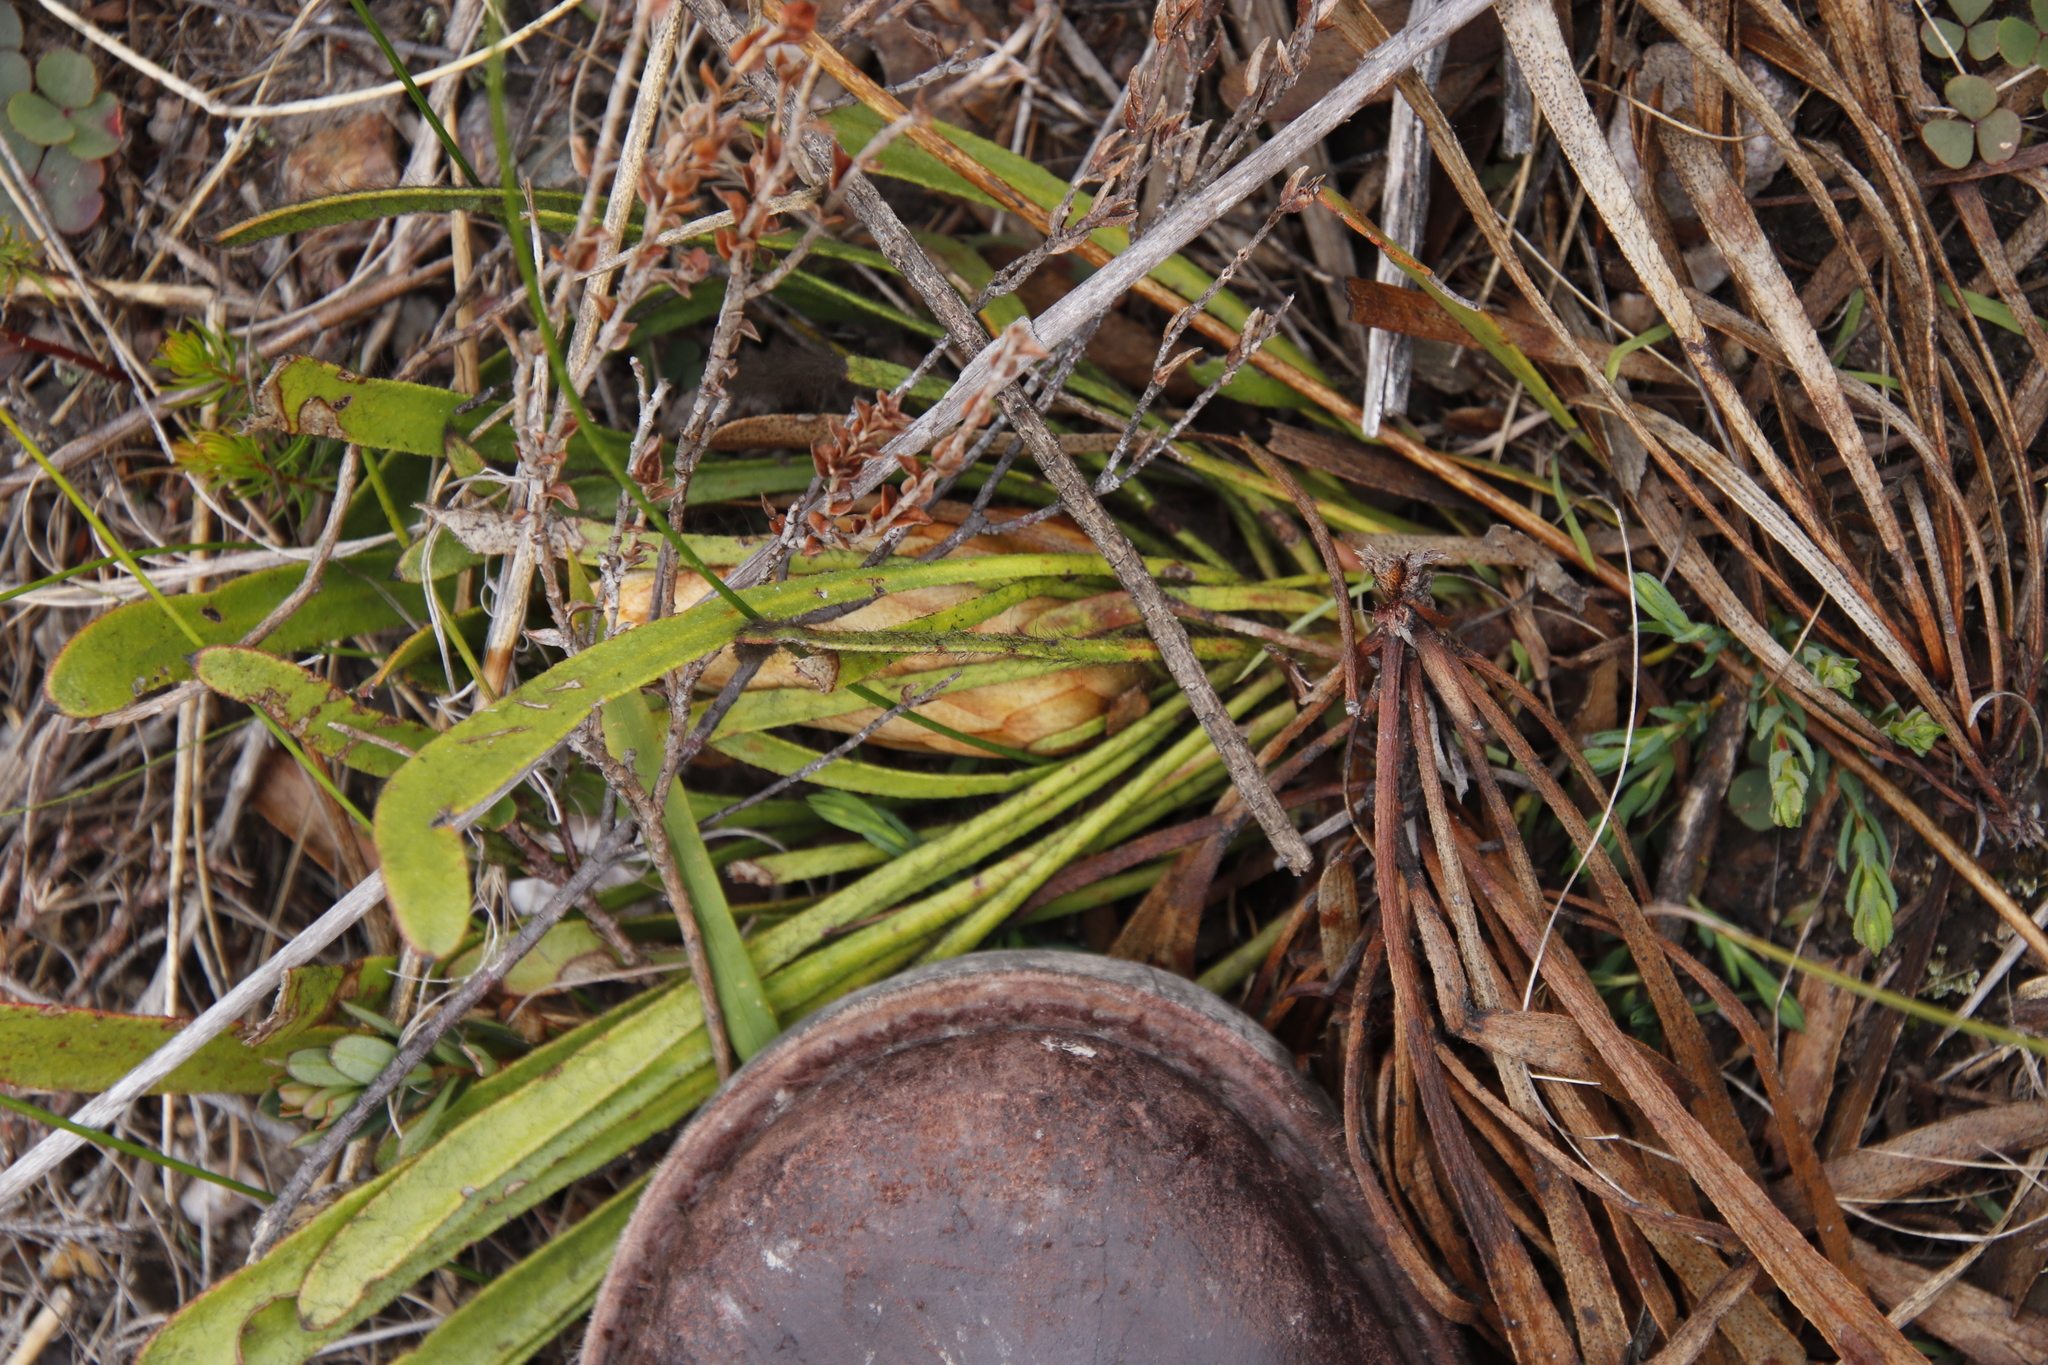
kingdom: Plantae
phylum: Tracheophyta
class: Magnoliopsida
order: Proteales
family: Proteaceae
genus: Protea
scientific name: Protea aspera
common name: Rough-leaf sugarbush
